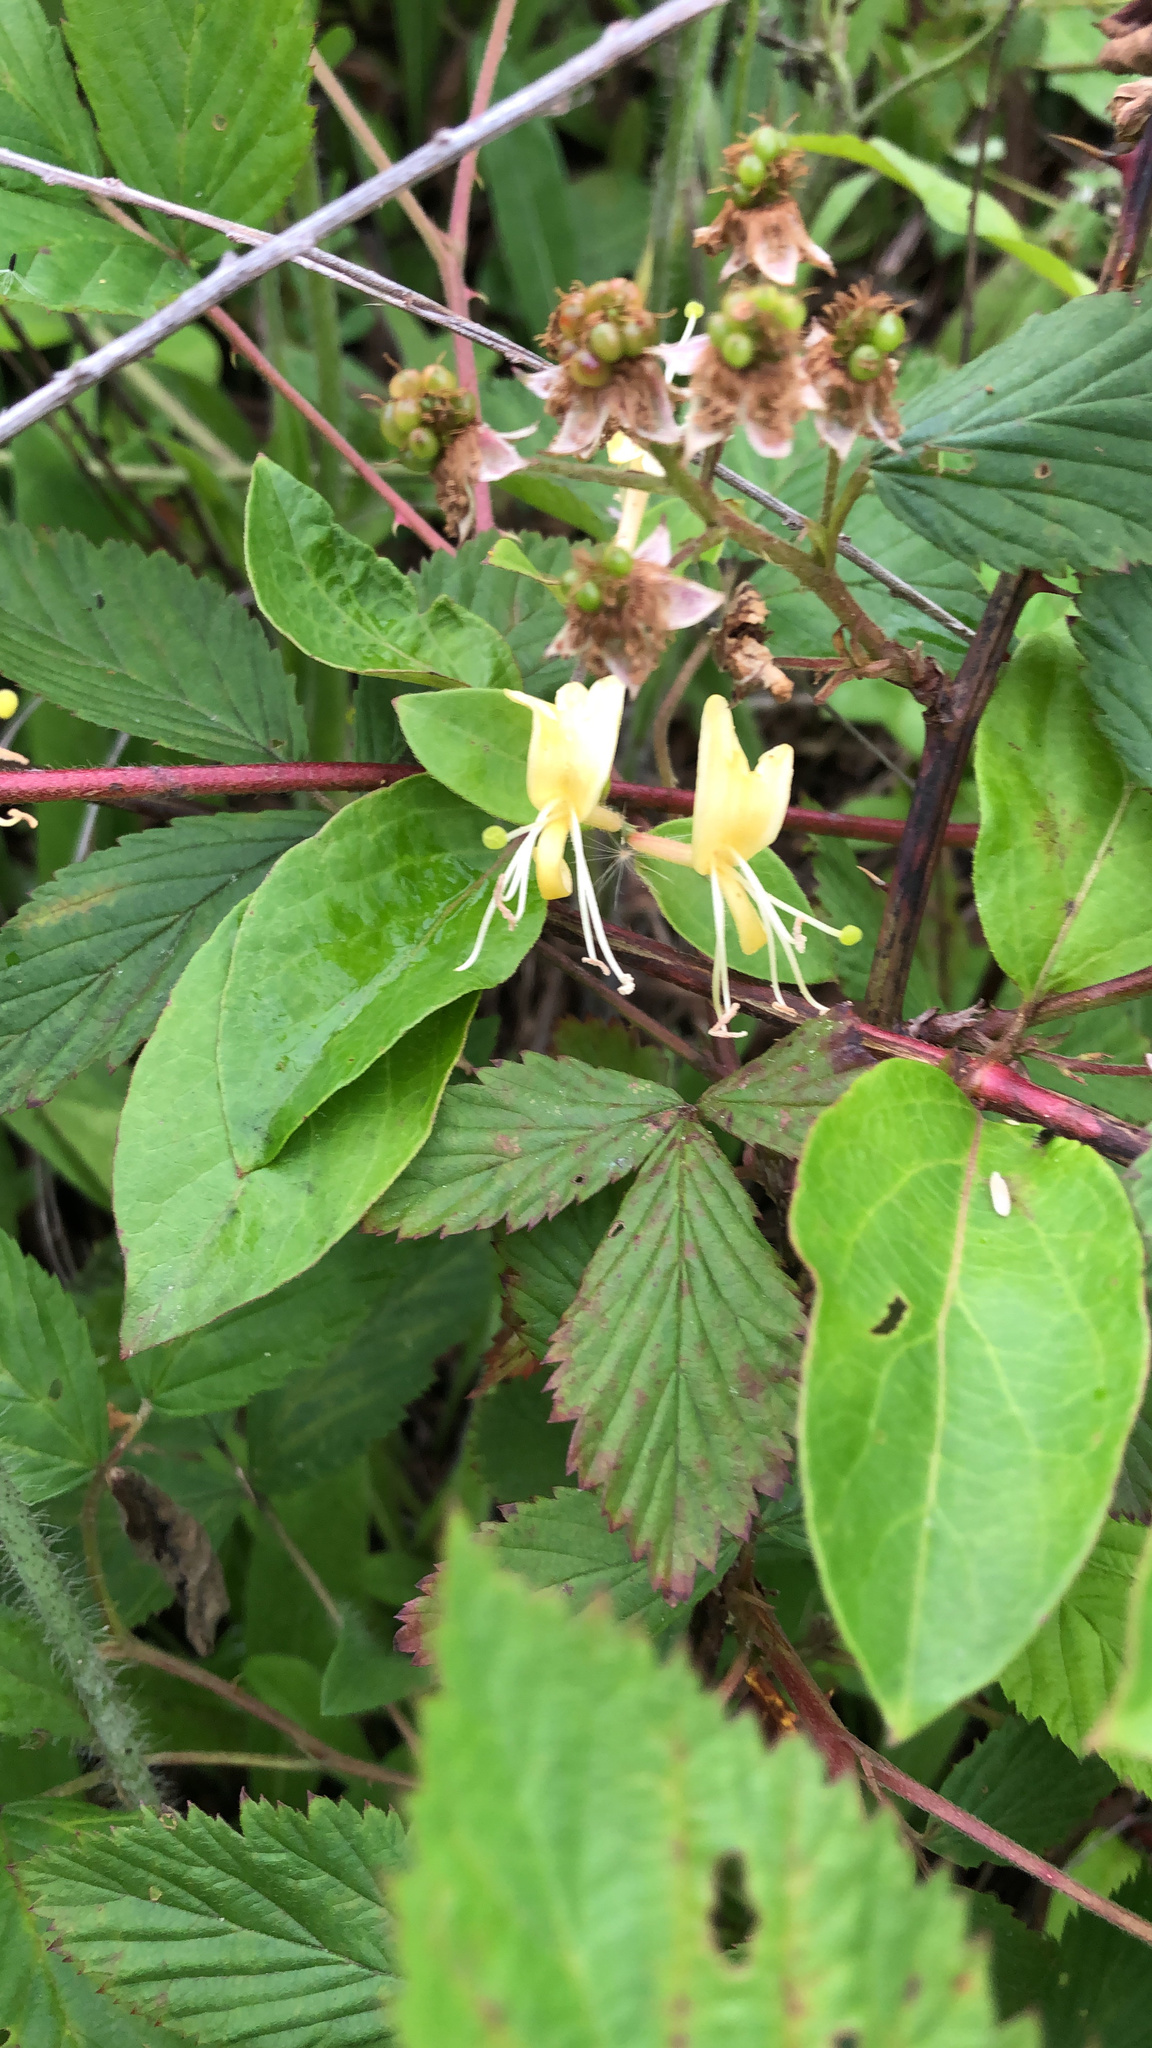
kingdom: Plantae
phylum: Tracheophyta
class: Magnoliopsida
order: Dipsacales
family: Caprifoliaceae
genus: Lonicera
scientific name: Lonicera japonica
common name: Japanese honeysuckle
